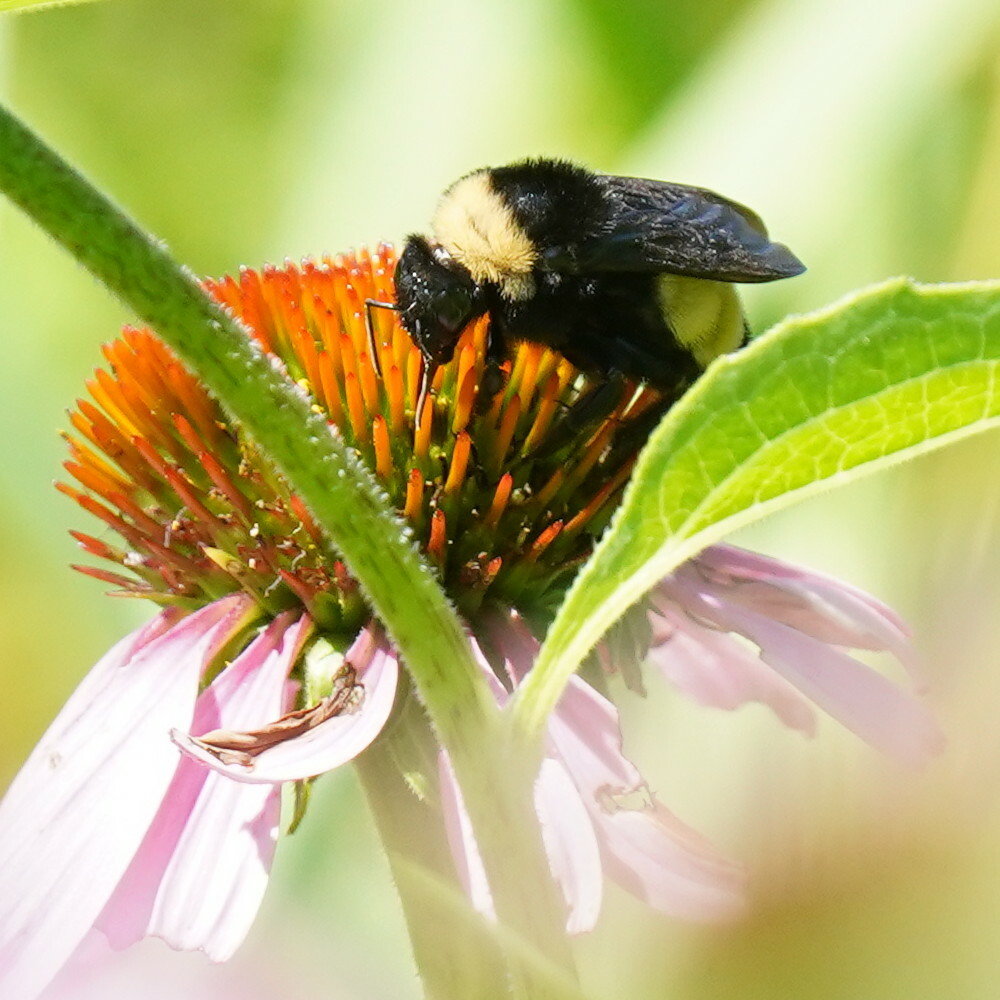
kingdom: Animalia
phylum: Arthropoda
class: Insecta
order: Hymenoptera
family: Apidae
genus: Bombus
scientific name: Bombus pensylvanicus
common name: Bumble bee
